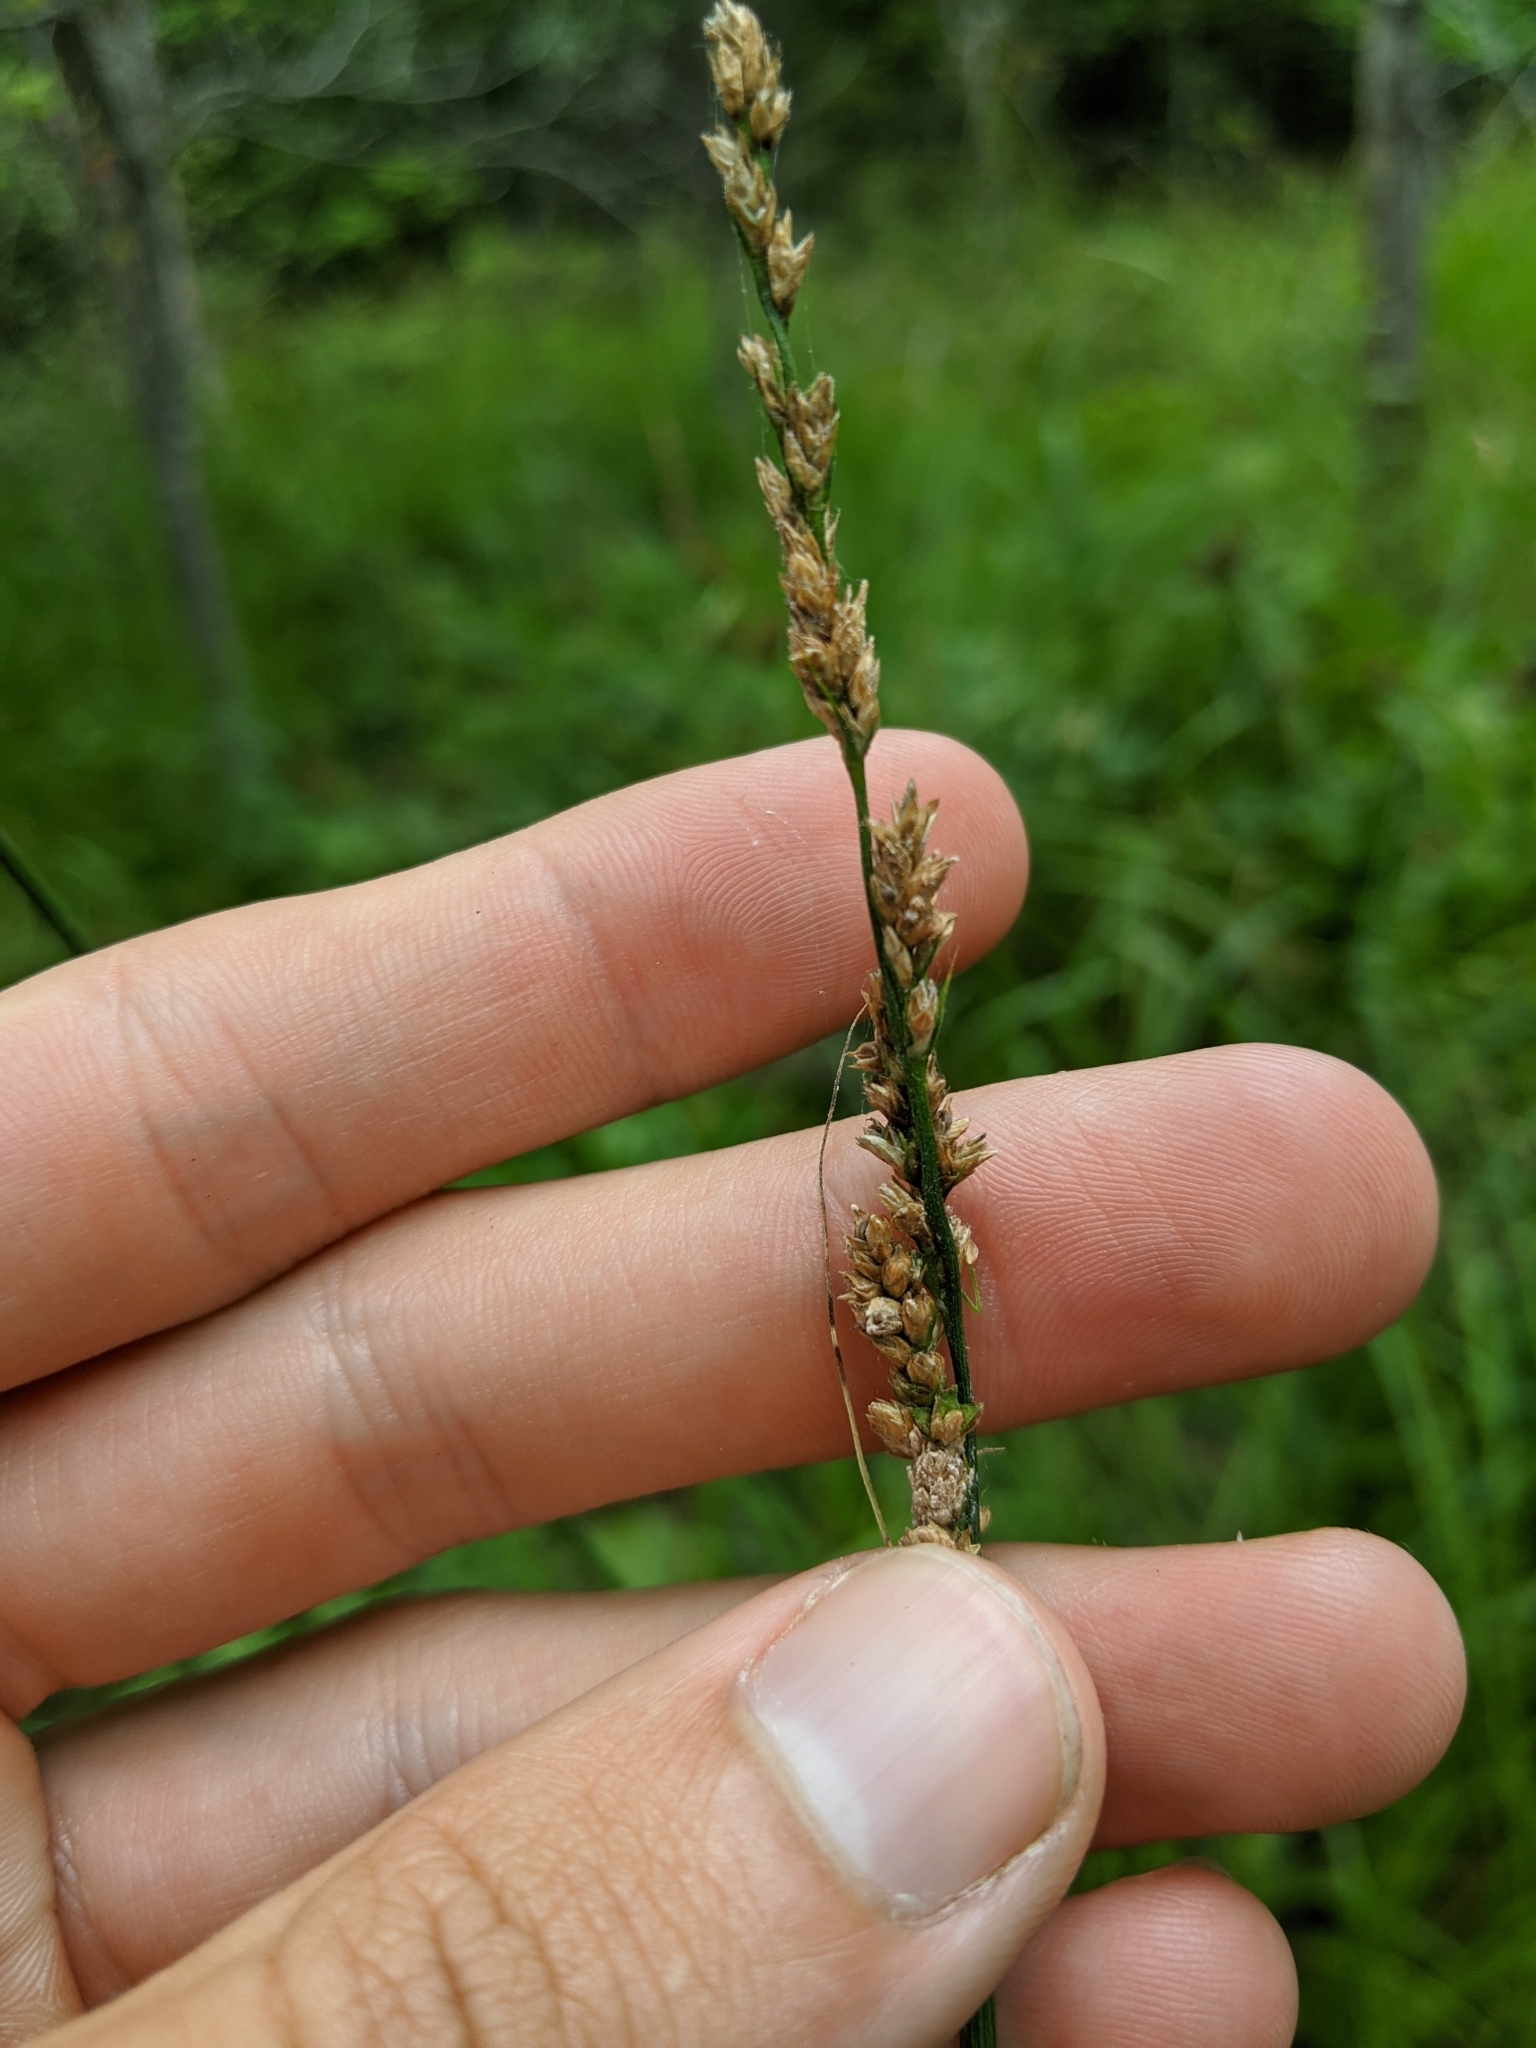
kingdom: Plantae
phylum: Tracheophyta
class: Liliopsida
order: Poales
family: Cyperaceae
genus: Carex
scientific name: Carex decomposita
